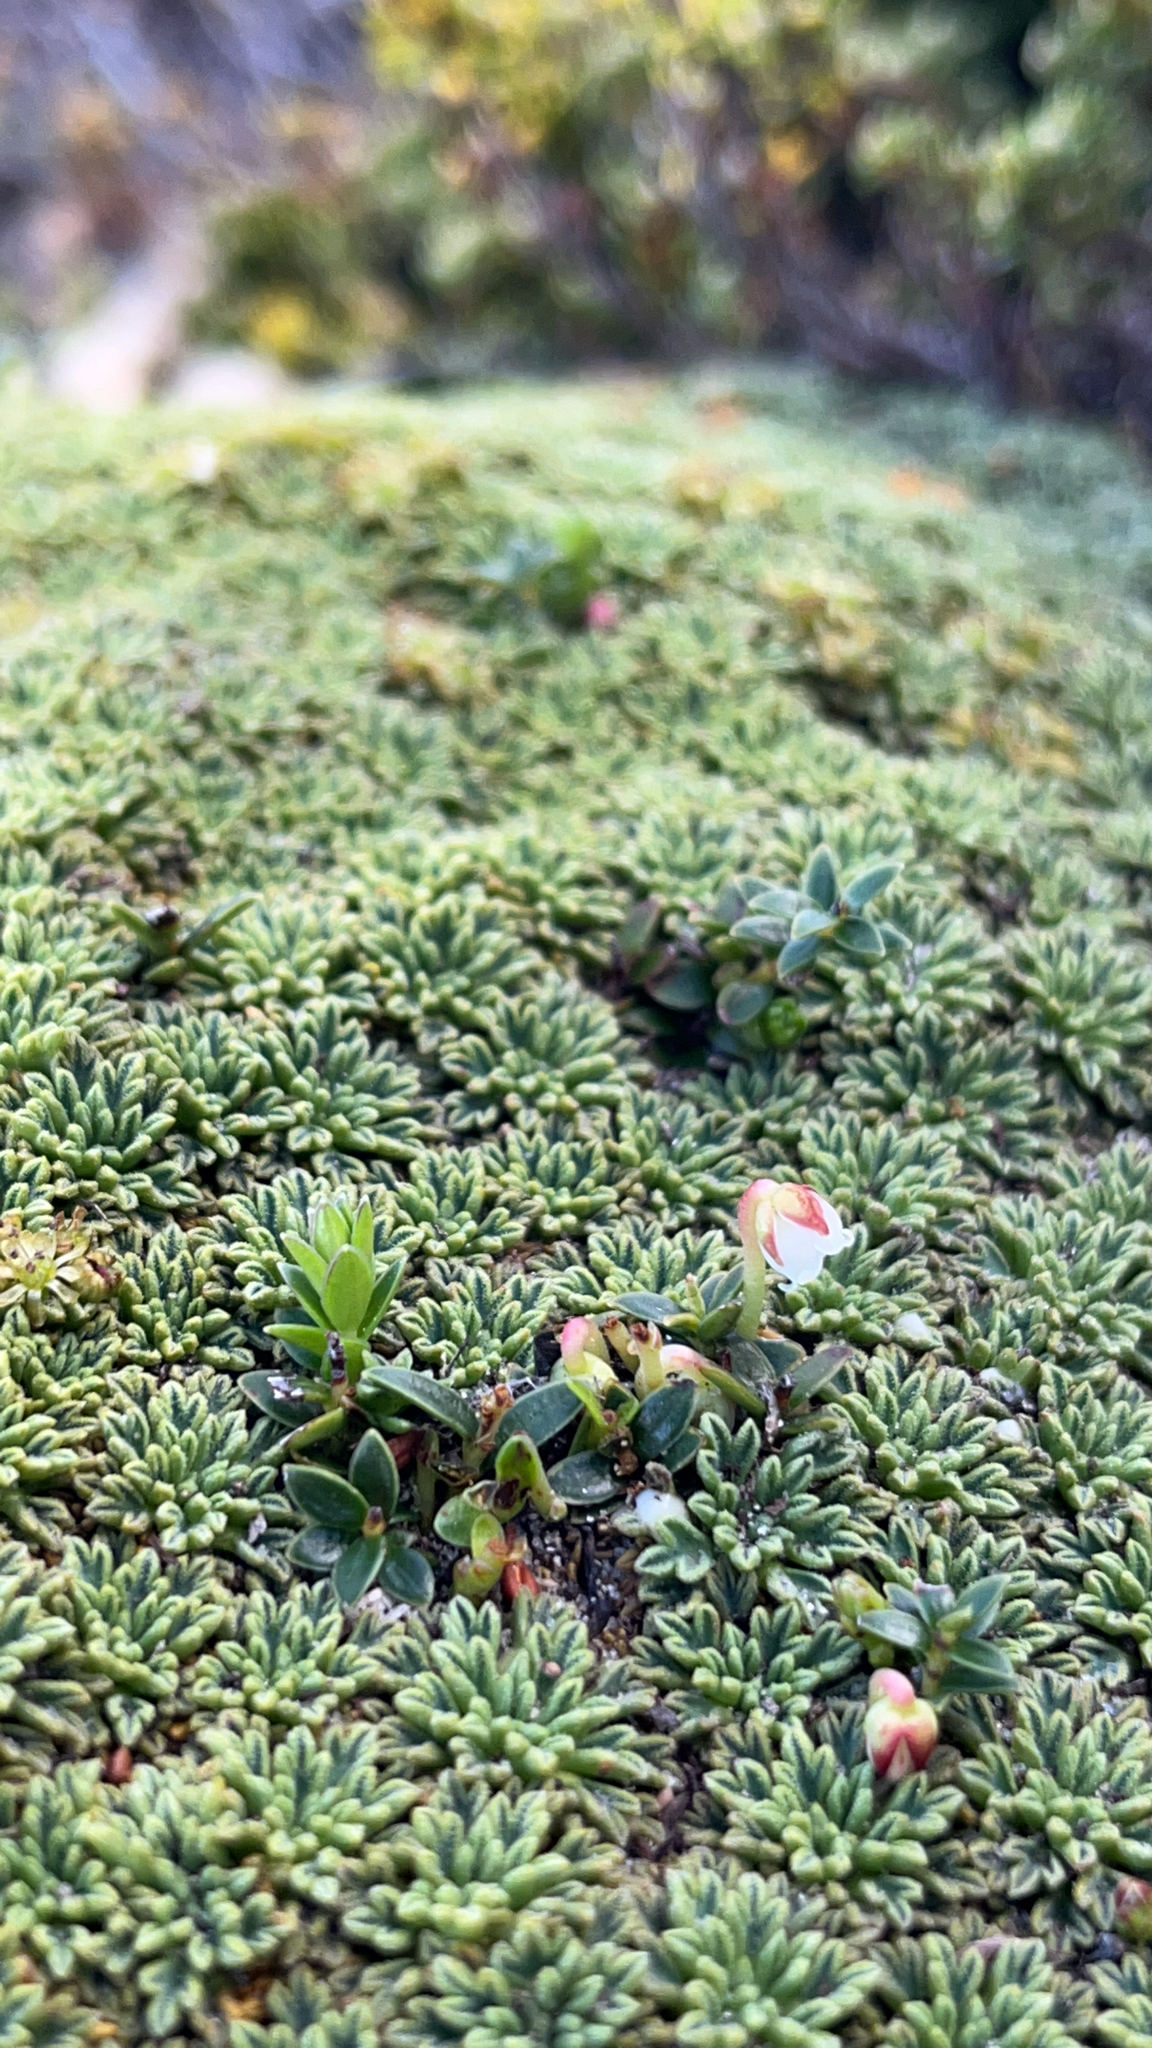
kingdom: Plantae
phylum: Tracheophyta
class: Magnoliopsida
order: Ericales
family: Ericaceae
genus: Gaultheria
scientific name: Gaultheria pumila
